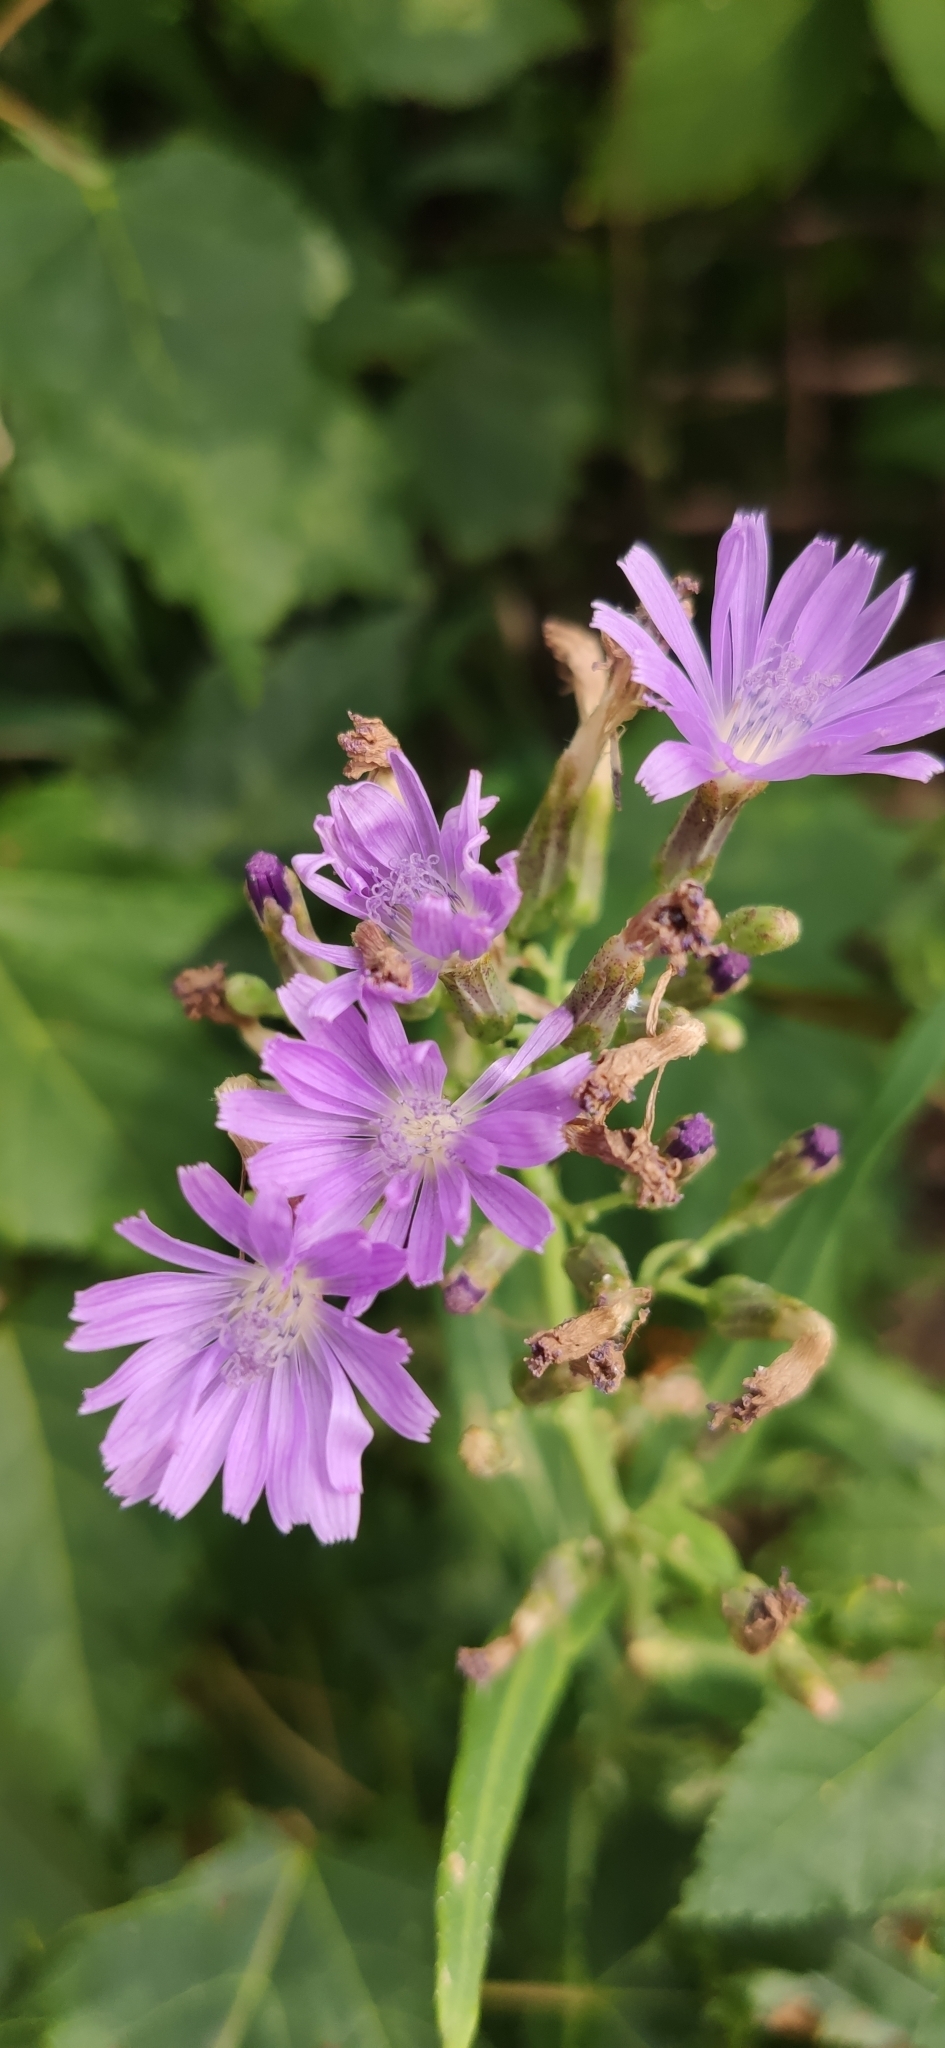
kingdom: Plantae
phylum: Tracheophyta
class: Magnoliopsida
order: Asterales
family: Asteraceae
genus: Lactuca
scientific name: Lactuca tatarica
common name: Blue lettuce
